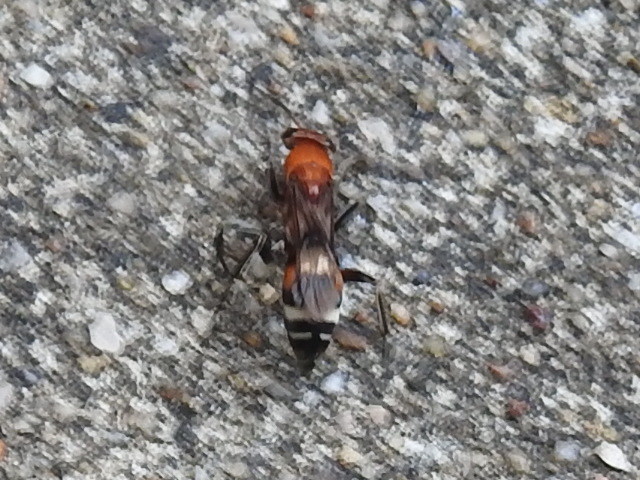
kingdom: Animalia
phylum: Arthropoda
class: Insecta
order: Hymenoptera
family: Pompilidae
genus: Psorthaspis
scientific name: Psorthaspis legata
